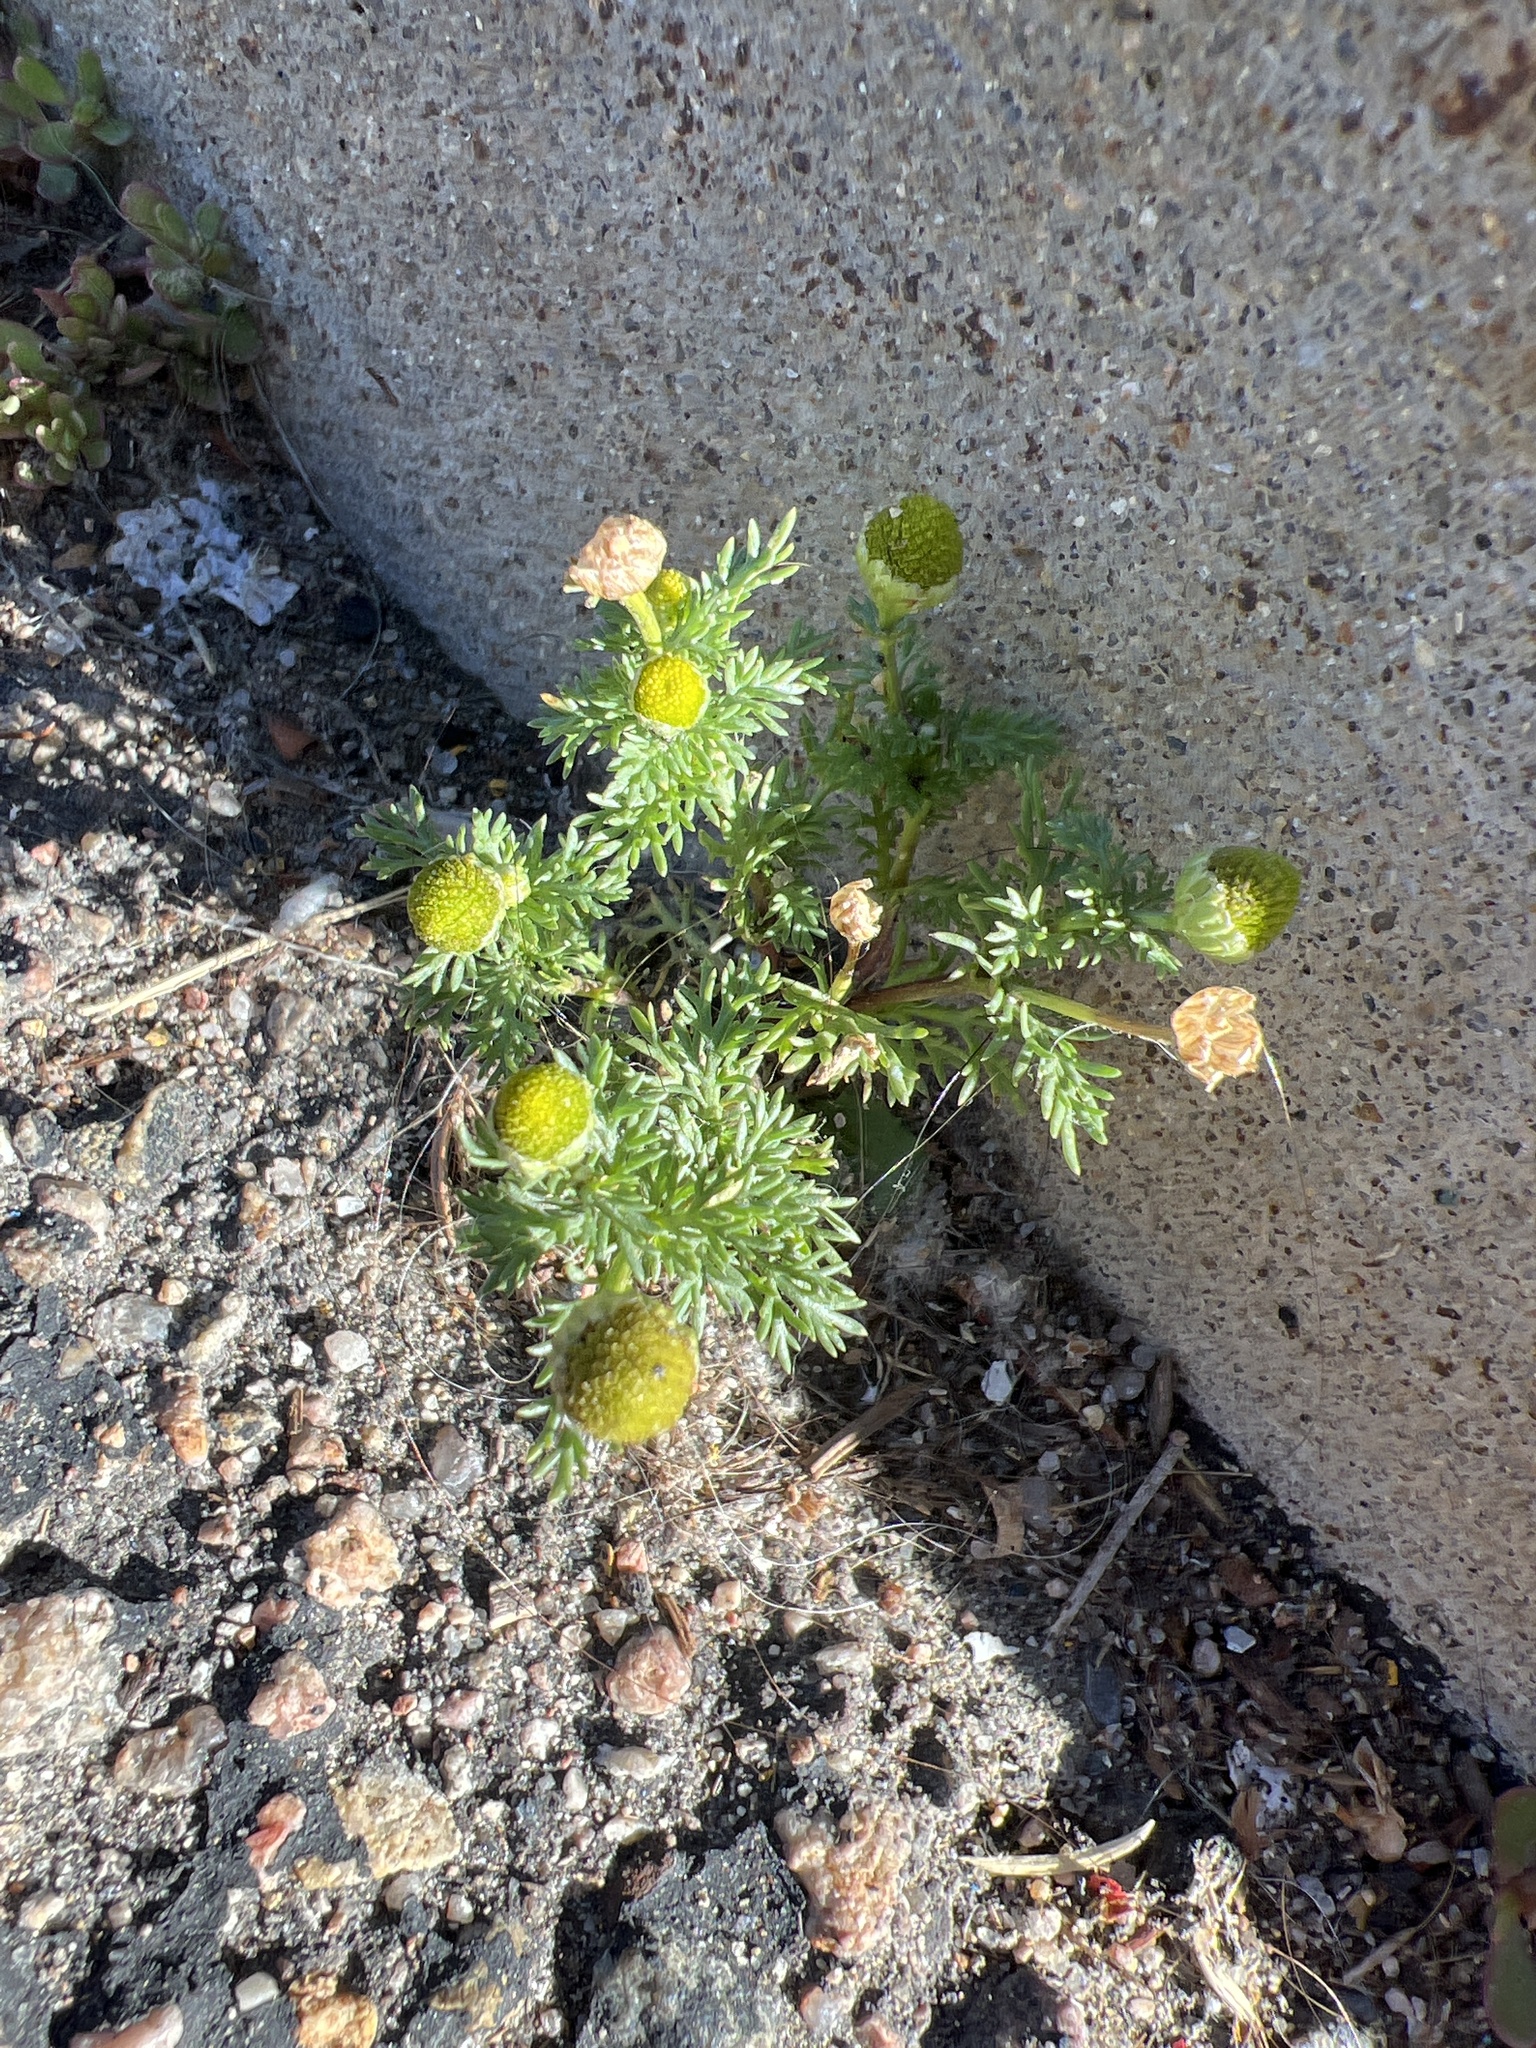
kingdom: Plantae
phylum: Tracheophyta
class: Magnoliopsida
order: Asterales
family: Asteraceae
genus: Matricaria
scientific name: Matricaria discoidea
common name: Disc mayweed
